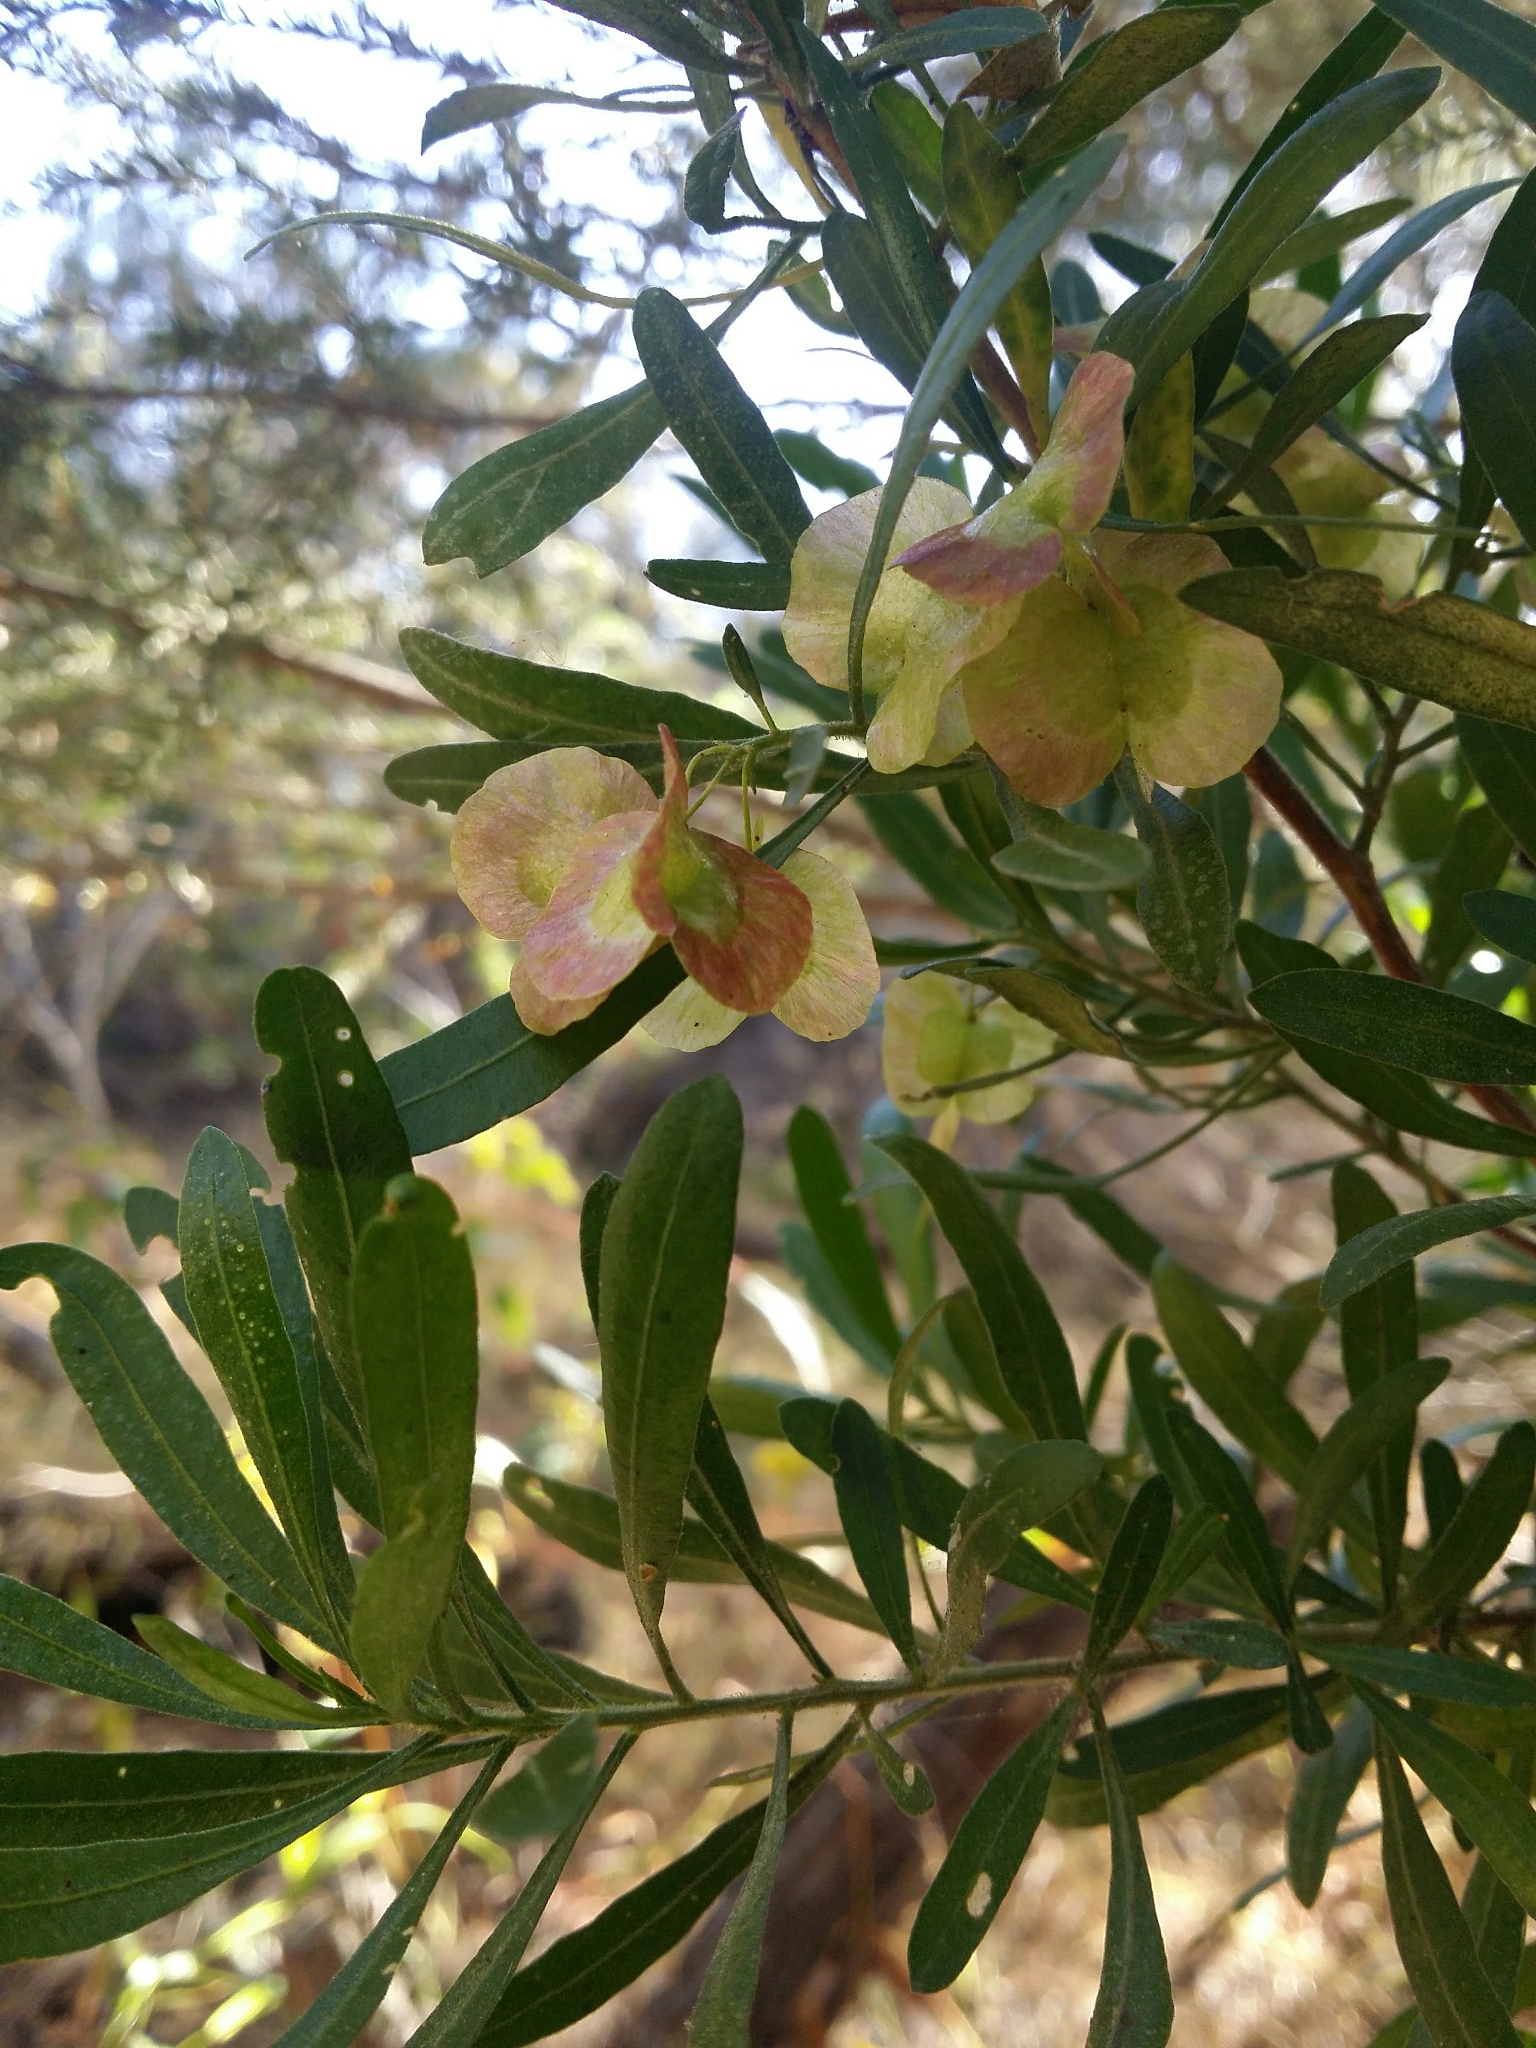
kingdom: Plantae
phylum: Tracheophyta
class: Magnoliopsida
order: Sapindales
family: Sapindaceae
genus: Dodonaea
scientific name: Dodonaea hackettiana
